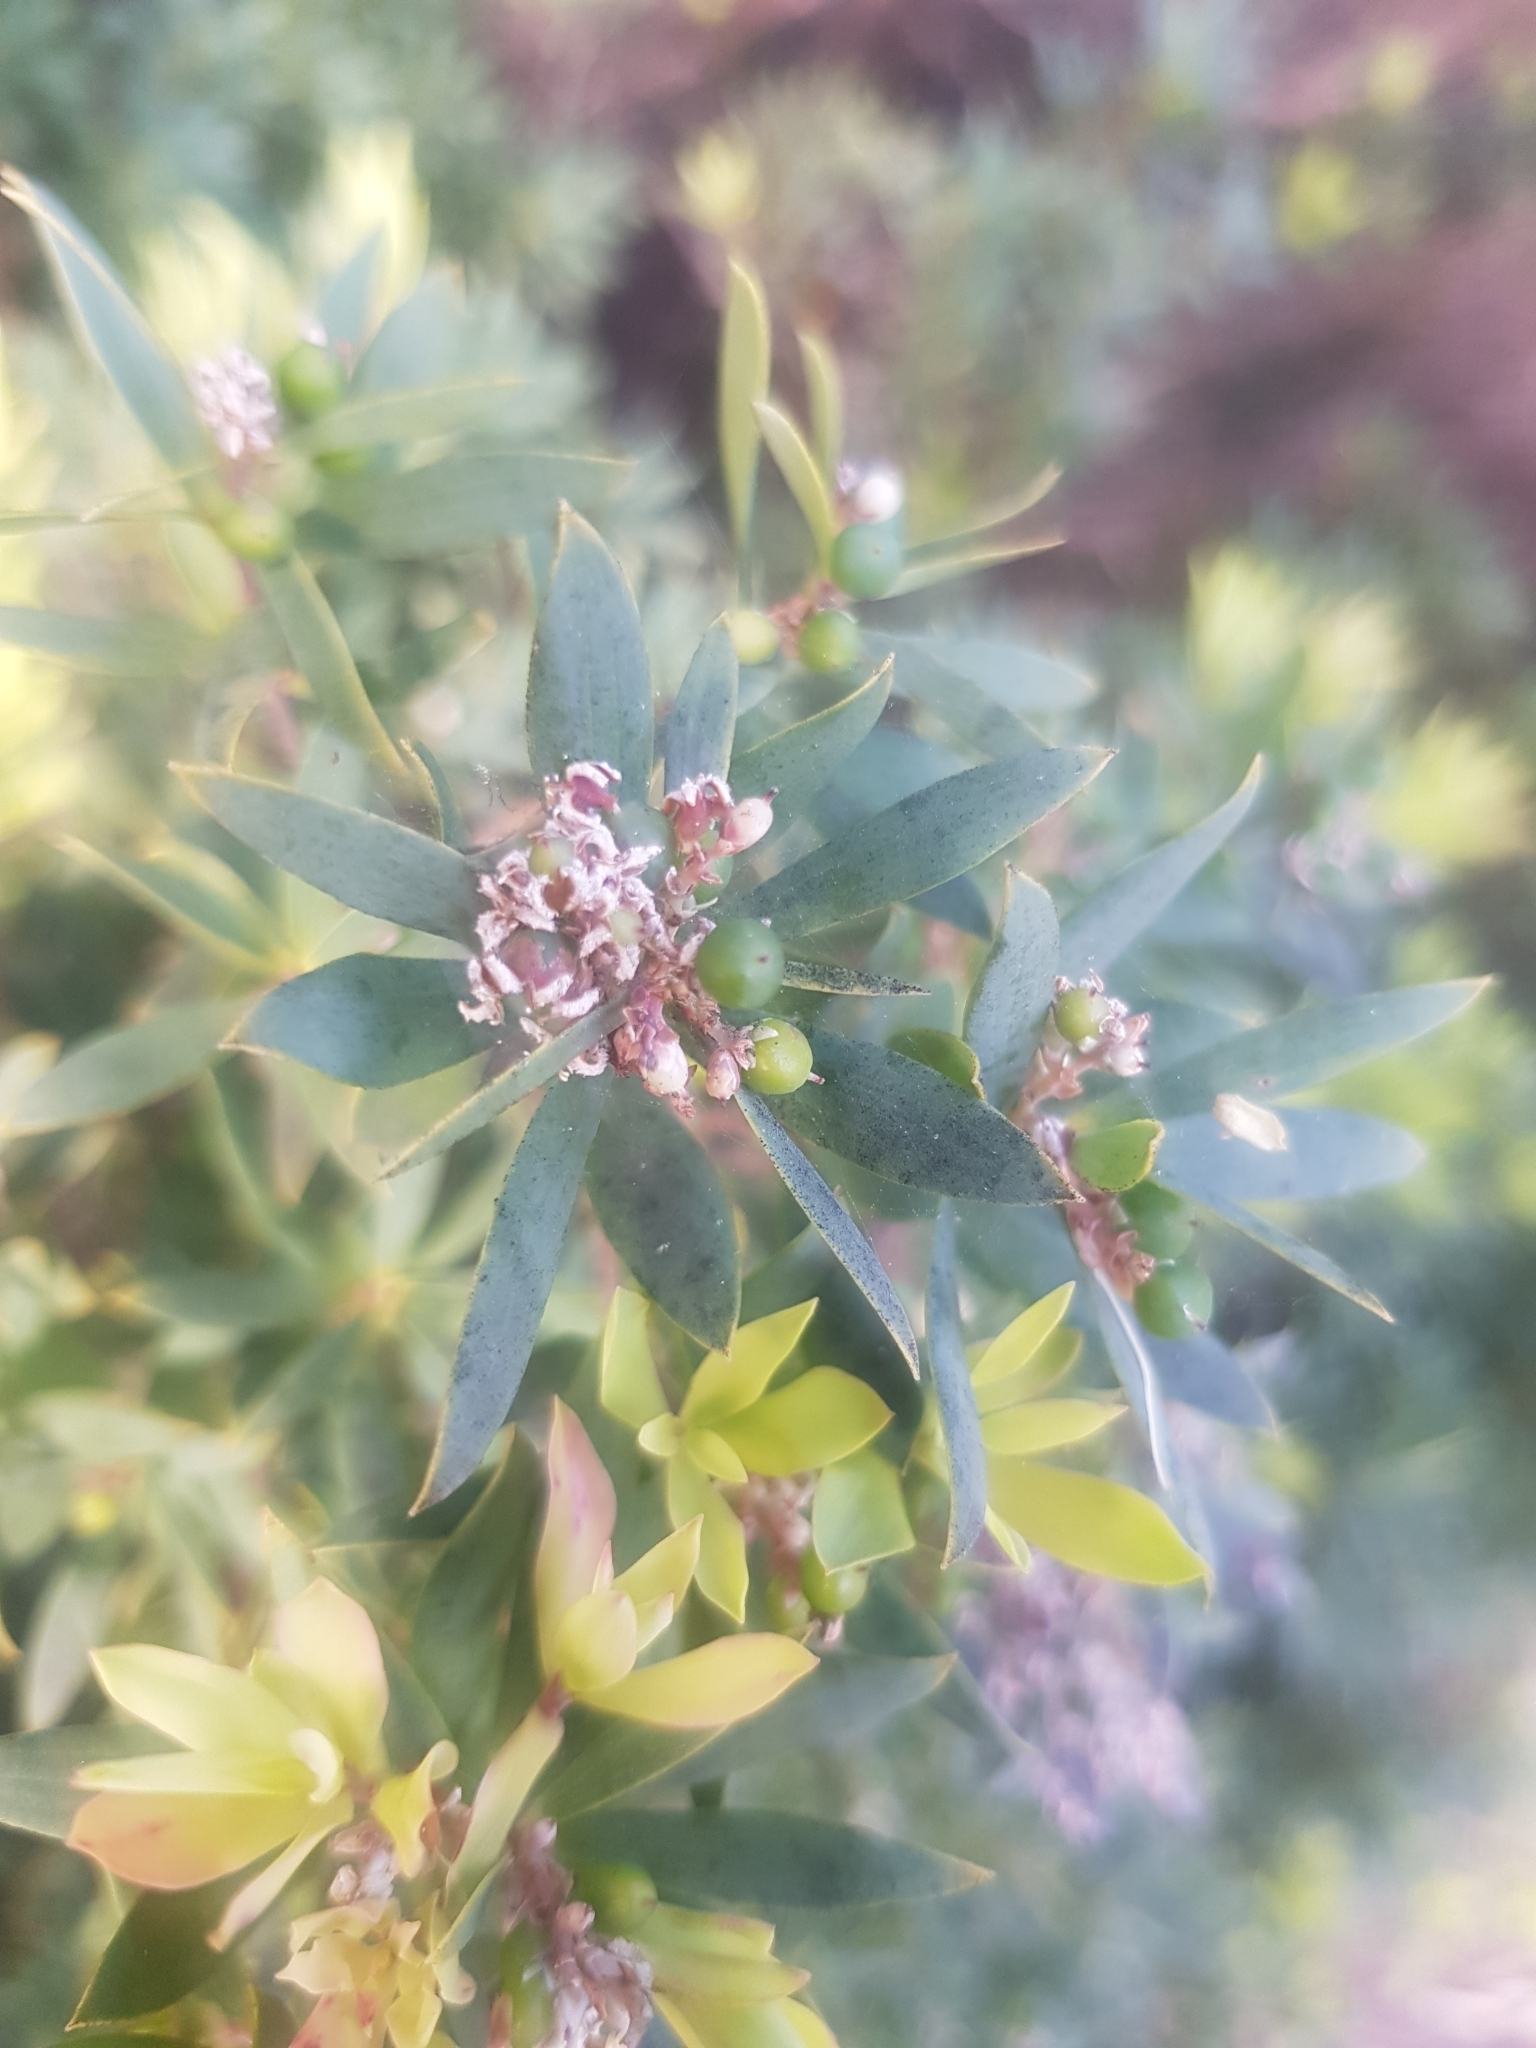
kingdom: Plantae
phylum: Tracheophyta
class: Magnoliopsida
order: Ericales
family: Ericaceae
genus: Leptecophylla
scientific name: Leptecophylla parvifolia
